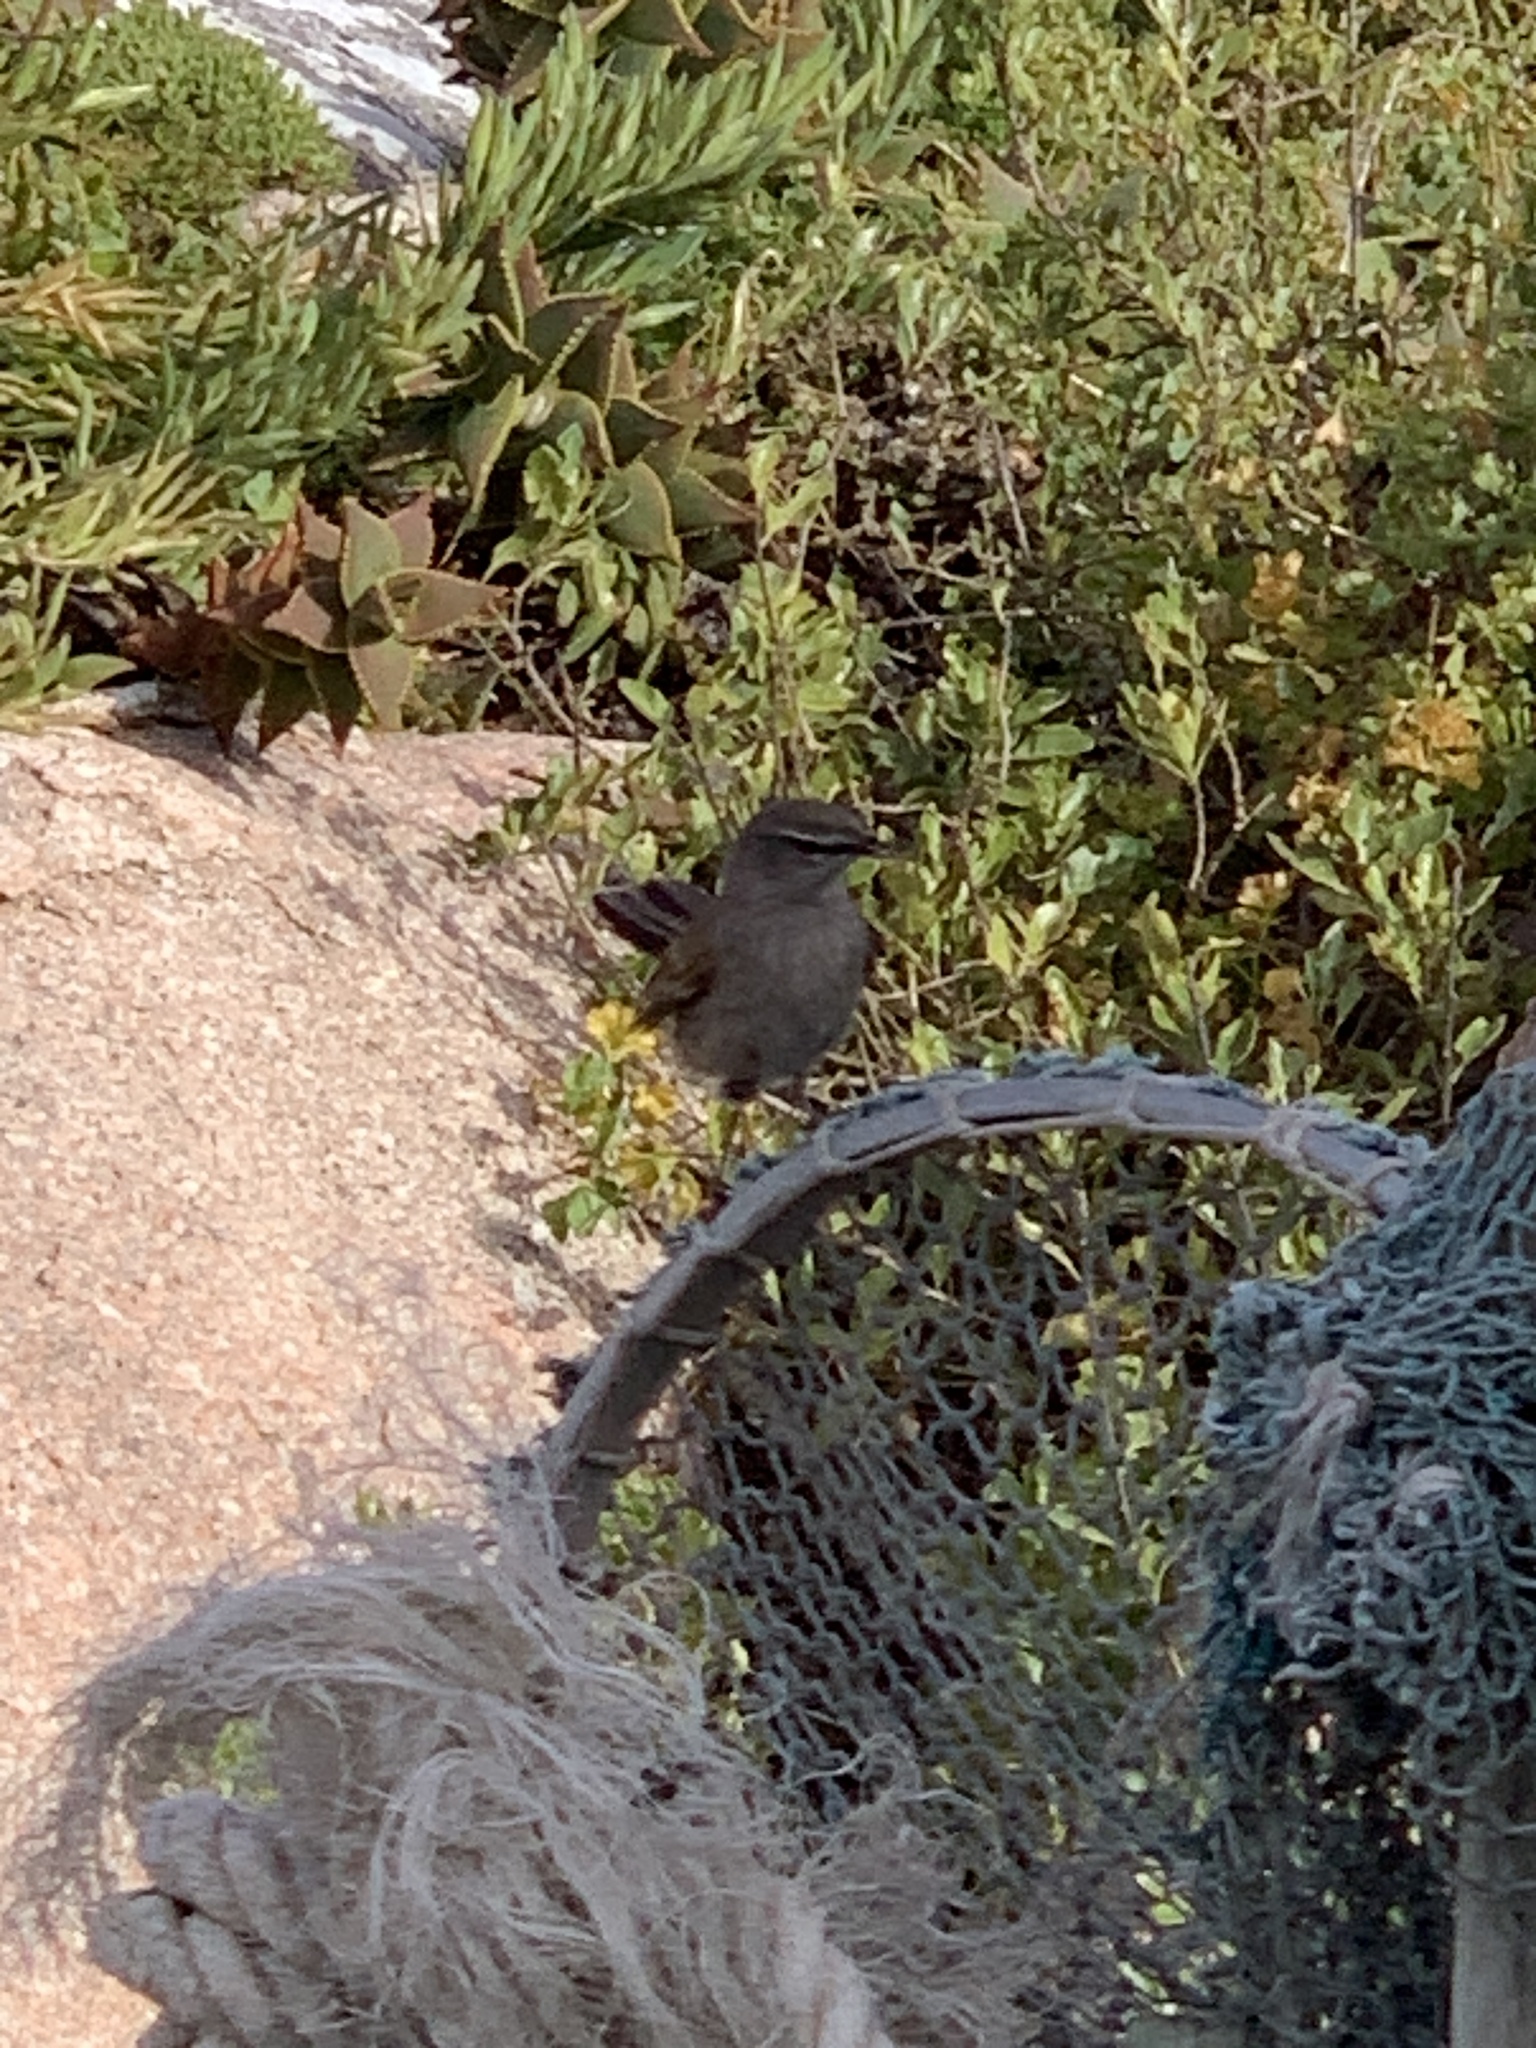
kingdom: Animalia
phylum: Chordata
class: Aves
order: Passeriformes
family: Muscicapidae
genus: Erythropygia
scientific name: Erythropygia coryphoeus
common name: Karoo scrub robin
